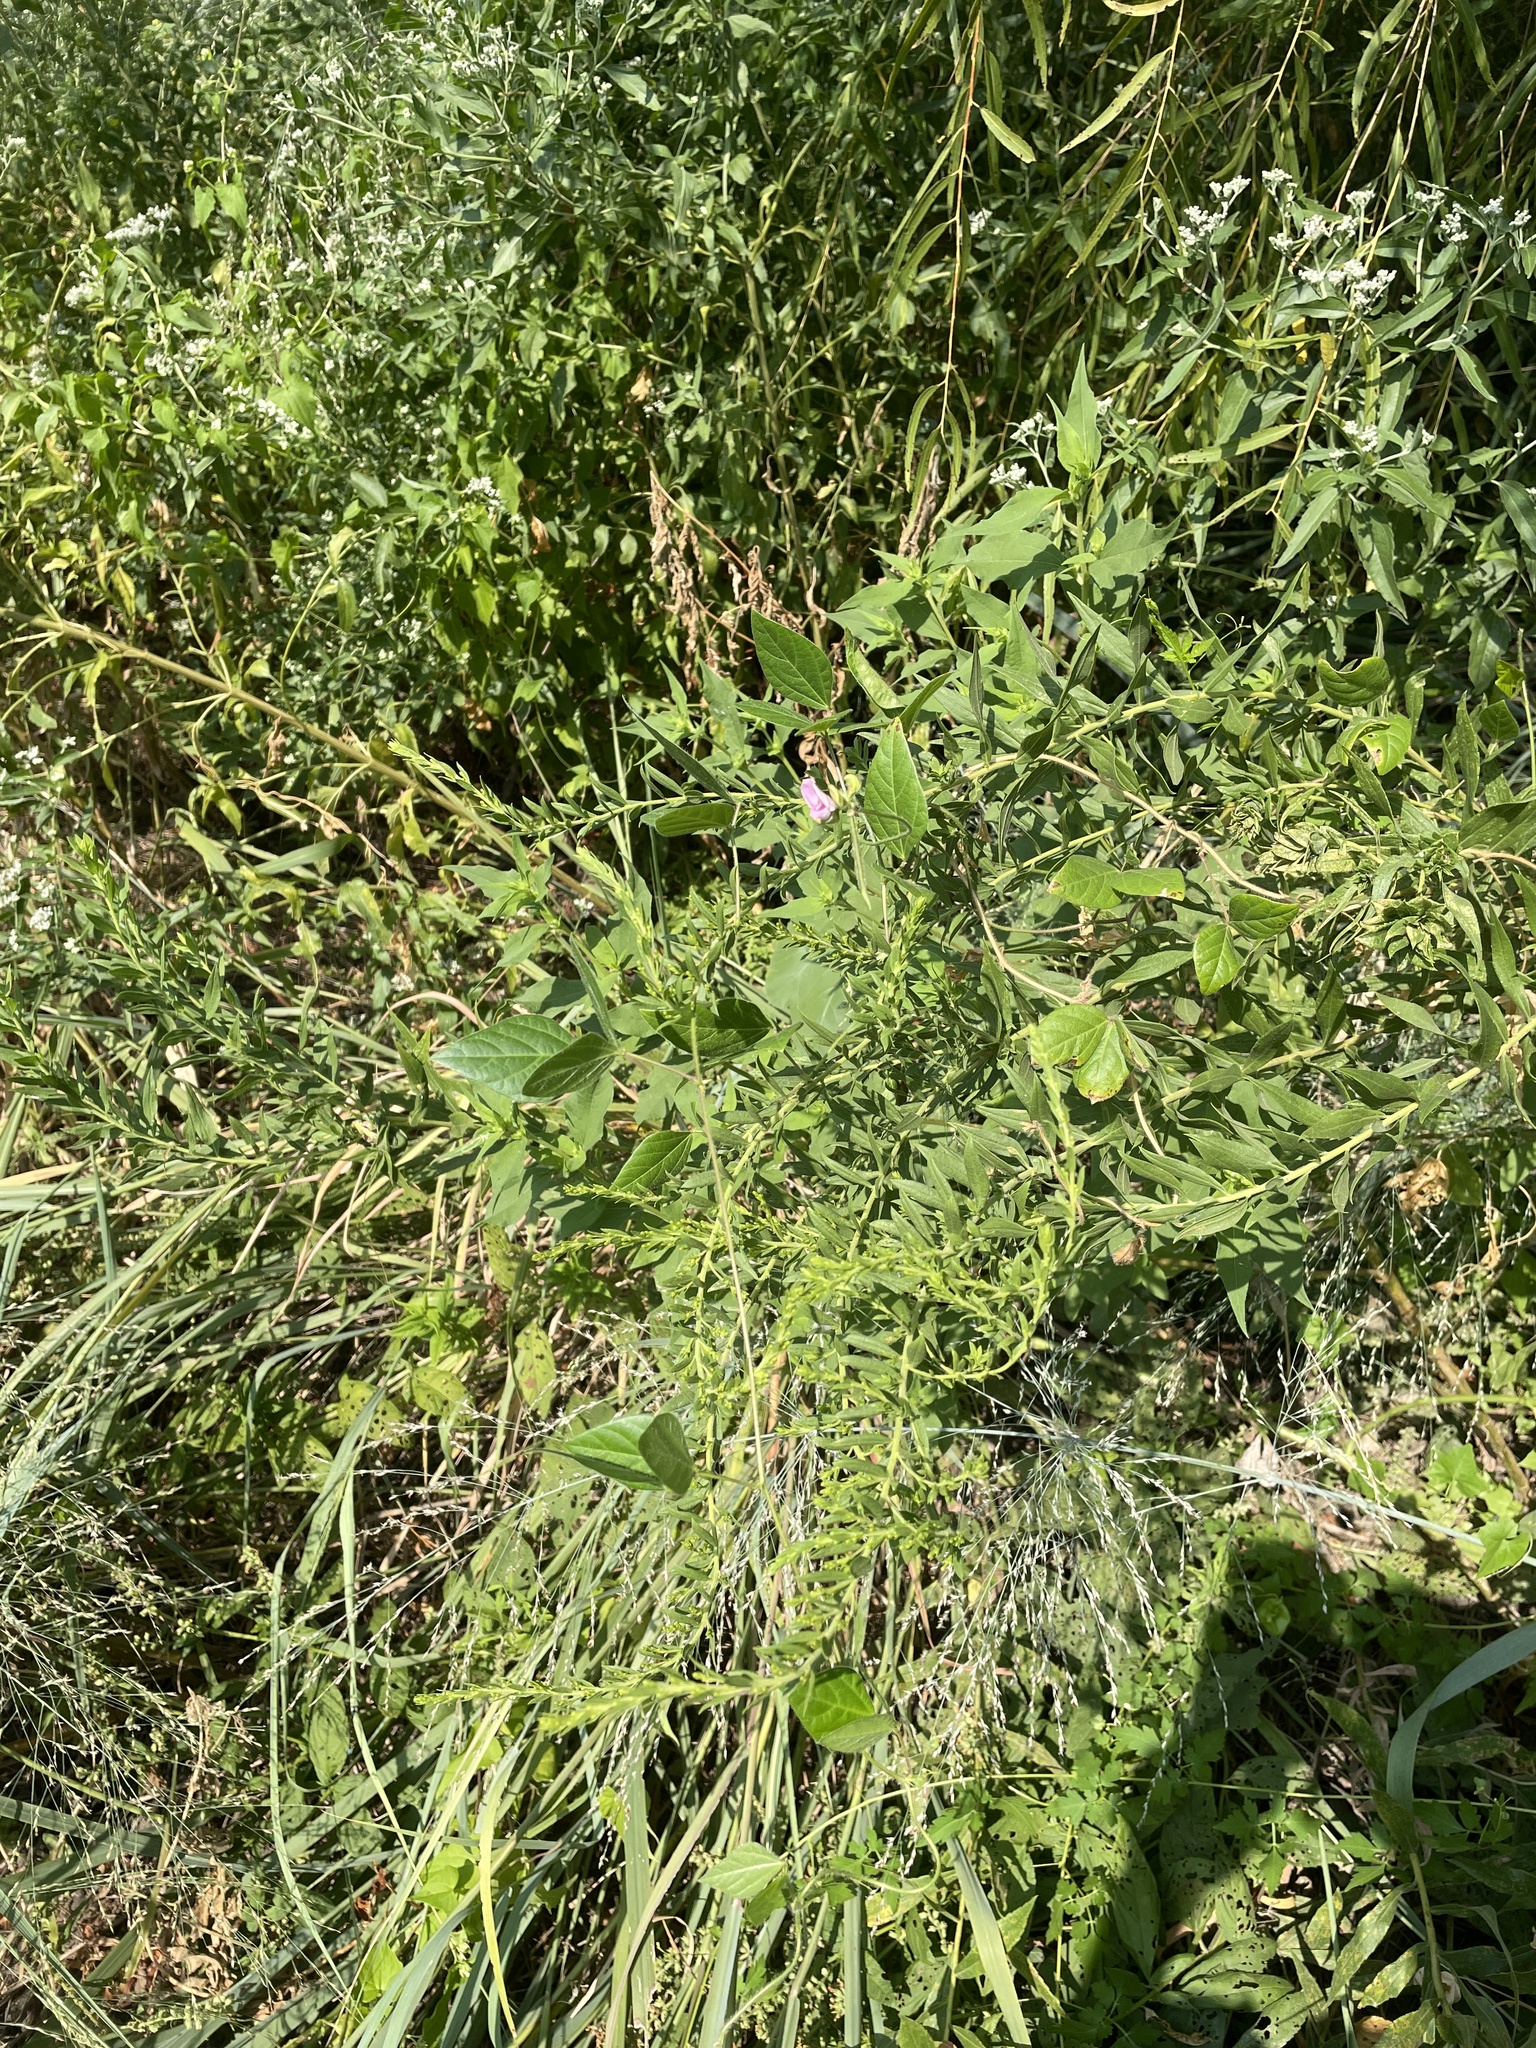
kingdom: Plantae
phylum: Tracheophyta
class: Magnoliopsida
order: Fabales
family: Fabaceae
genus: Strophostyles
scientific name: Strophostyles helvola
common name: Trailing wild bean
